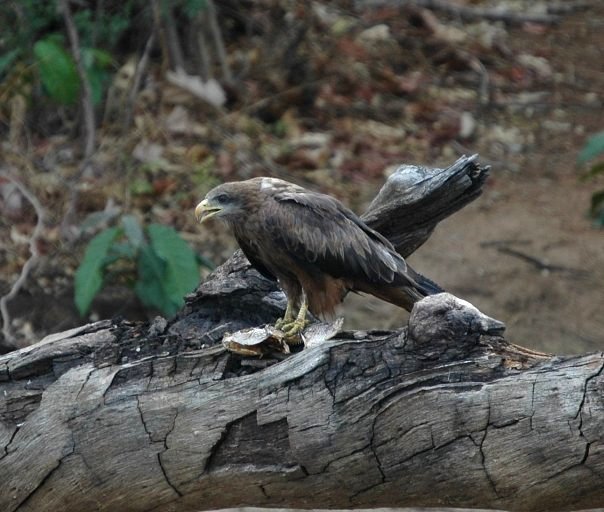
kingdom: Animalia
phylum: Chordata
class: Aves
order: Accipitriformes
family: Accipitridae
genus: Milvus
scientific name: Milvus migrans
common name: Black kite
